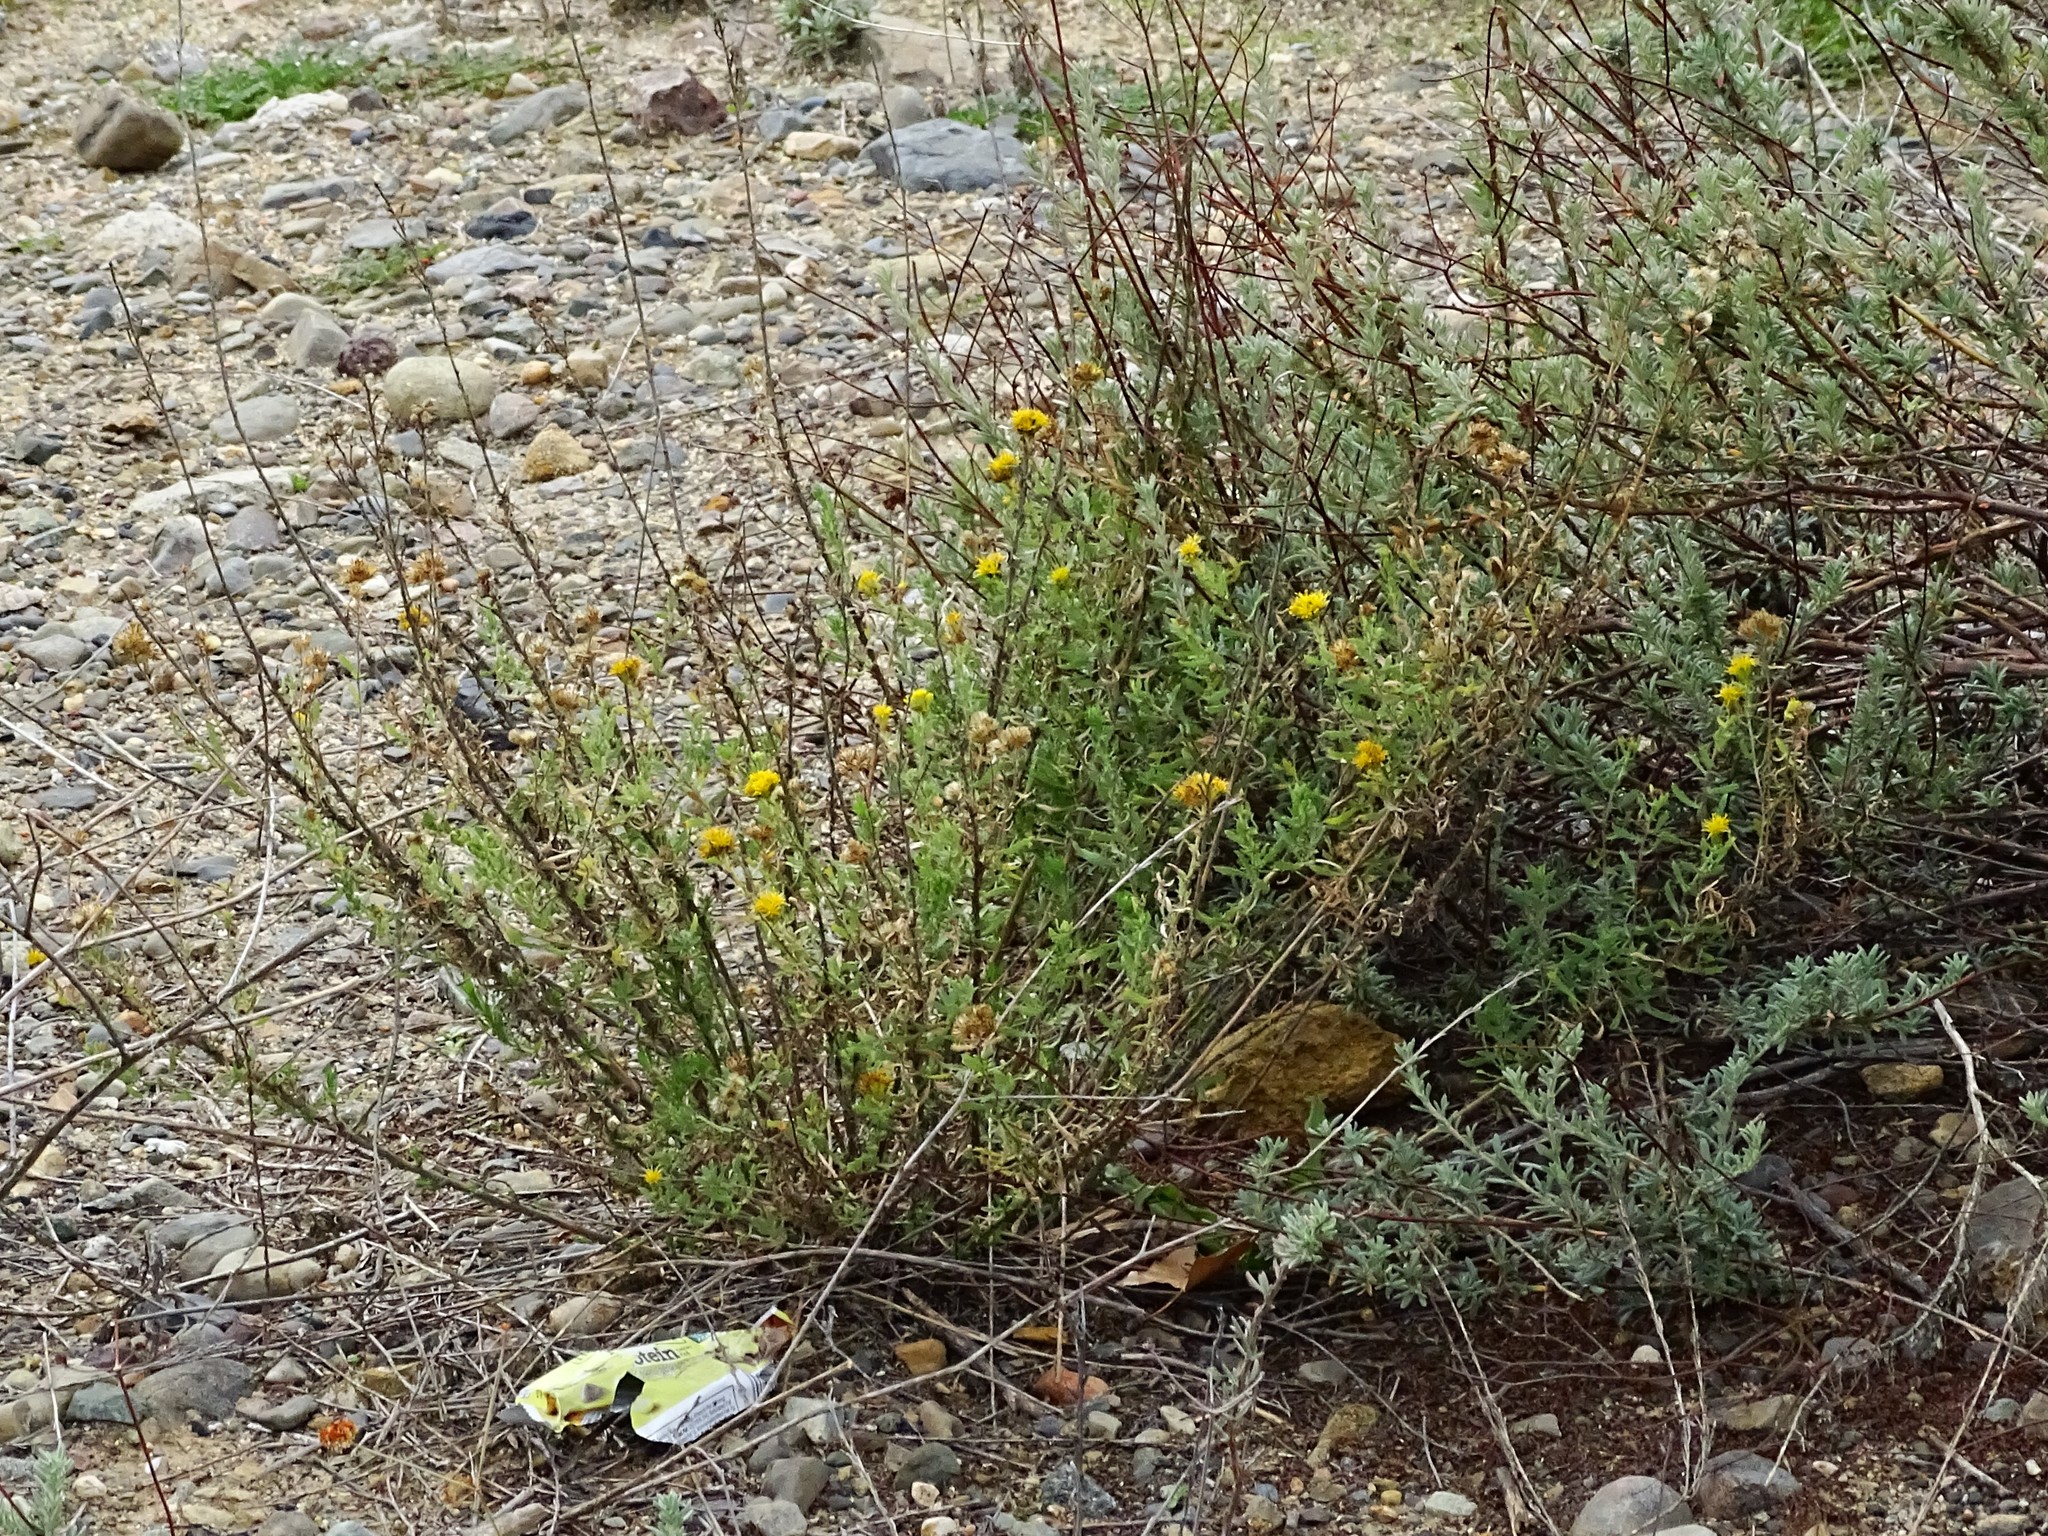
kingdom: Plantae
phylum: Tracheophyta
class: Magnoliopsida
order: Asterales
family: Asteraceae
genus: Isocoma
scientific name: Isocoma menziesii
